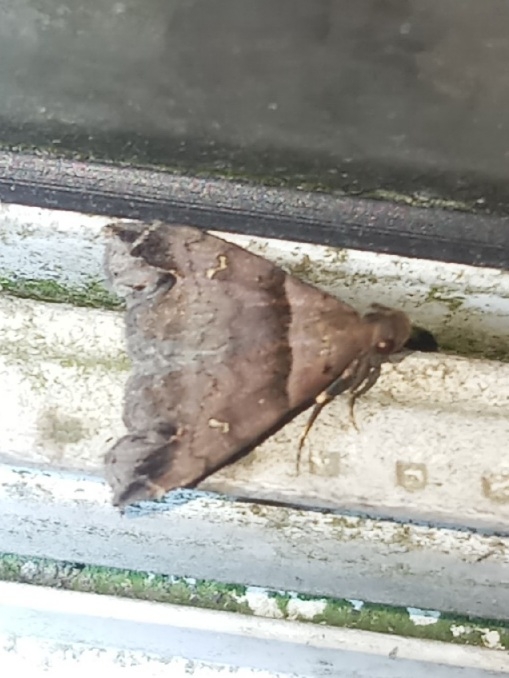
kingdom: Animalia
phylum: Arthropoda
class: Insecta
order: Lepidoptera
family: Erebidae
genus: Lascoria
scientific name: Lascoria ambigualis
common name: Ambiguous moth
